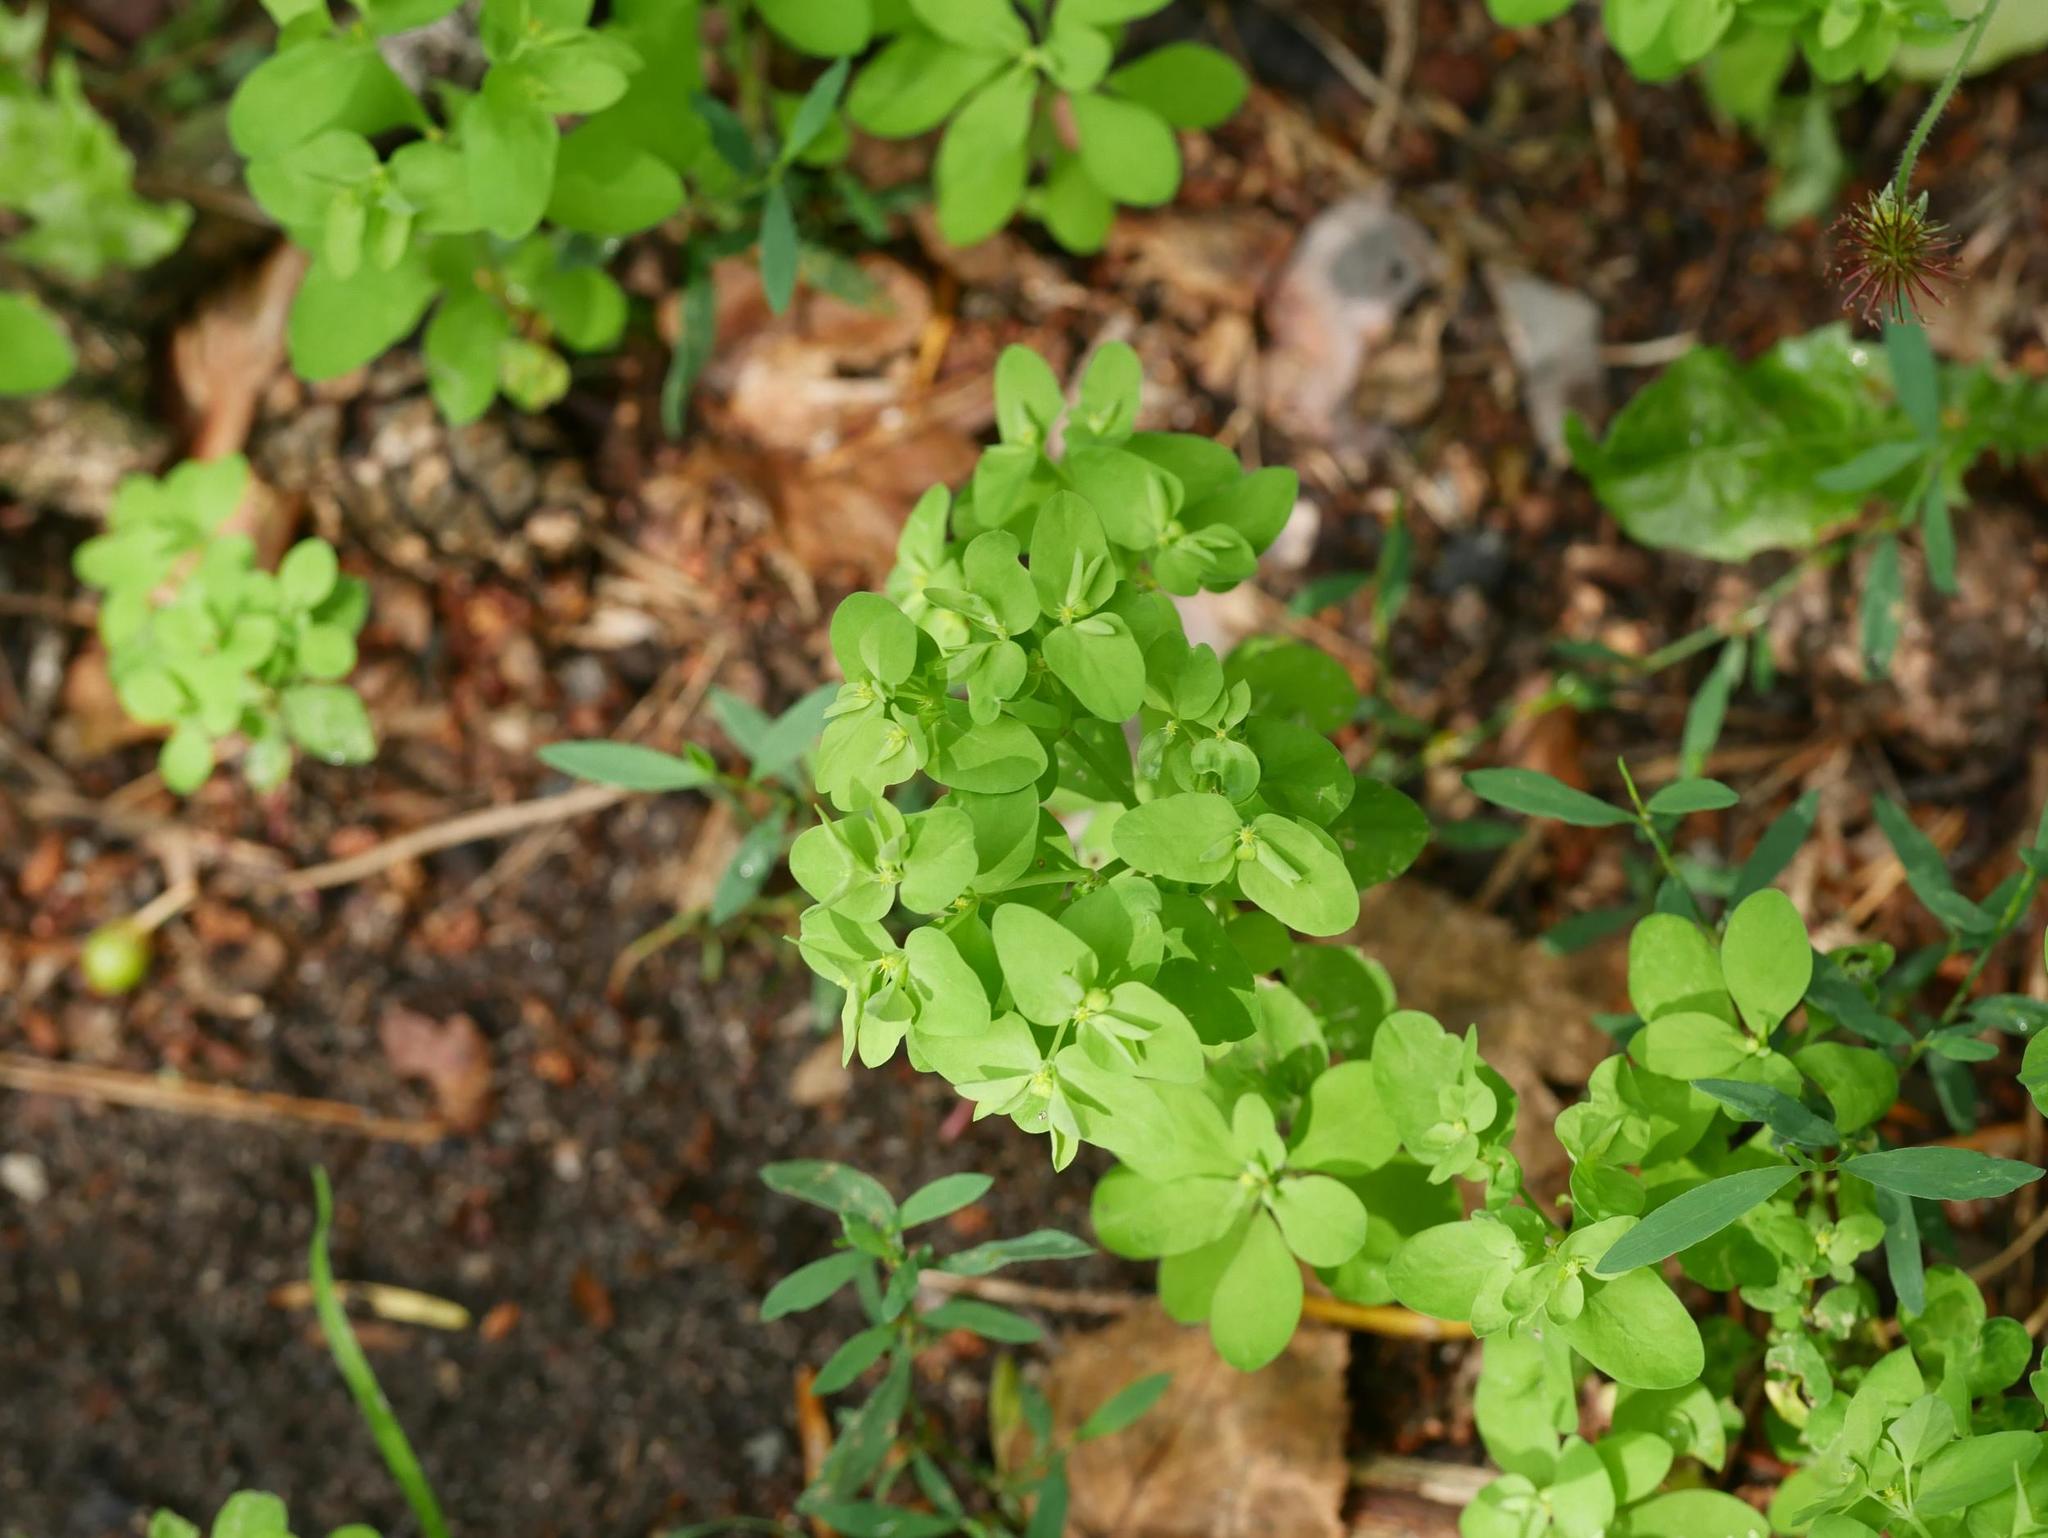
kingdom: Plantae
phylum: Tracheophyta
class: Magnoliopsida
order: Malpighiales
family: Euphorbiaceae
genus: Euphorbia
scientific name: Euphorbia peplus
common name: Petty spurge
